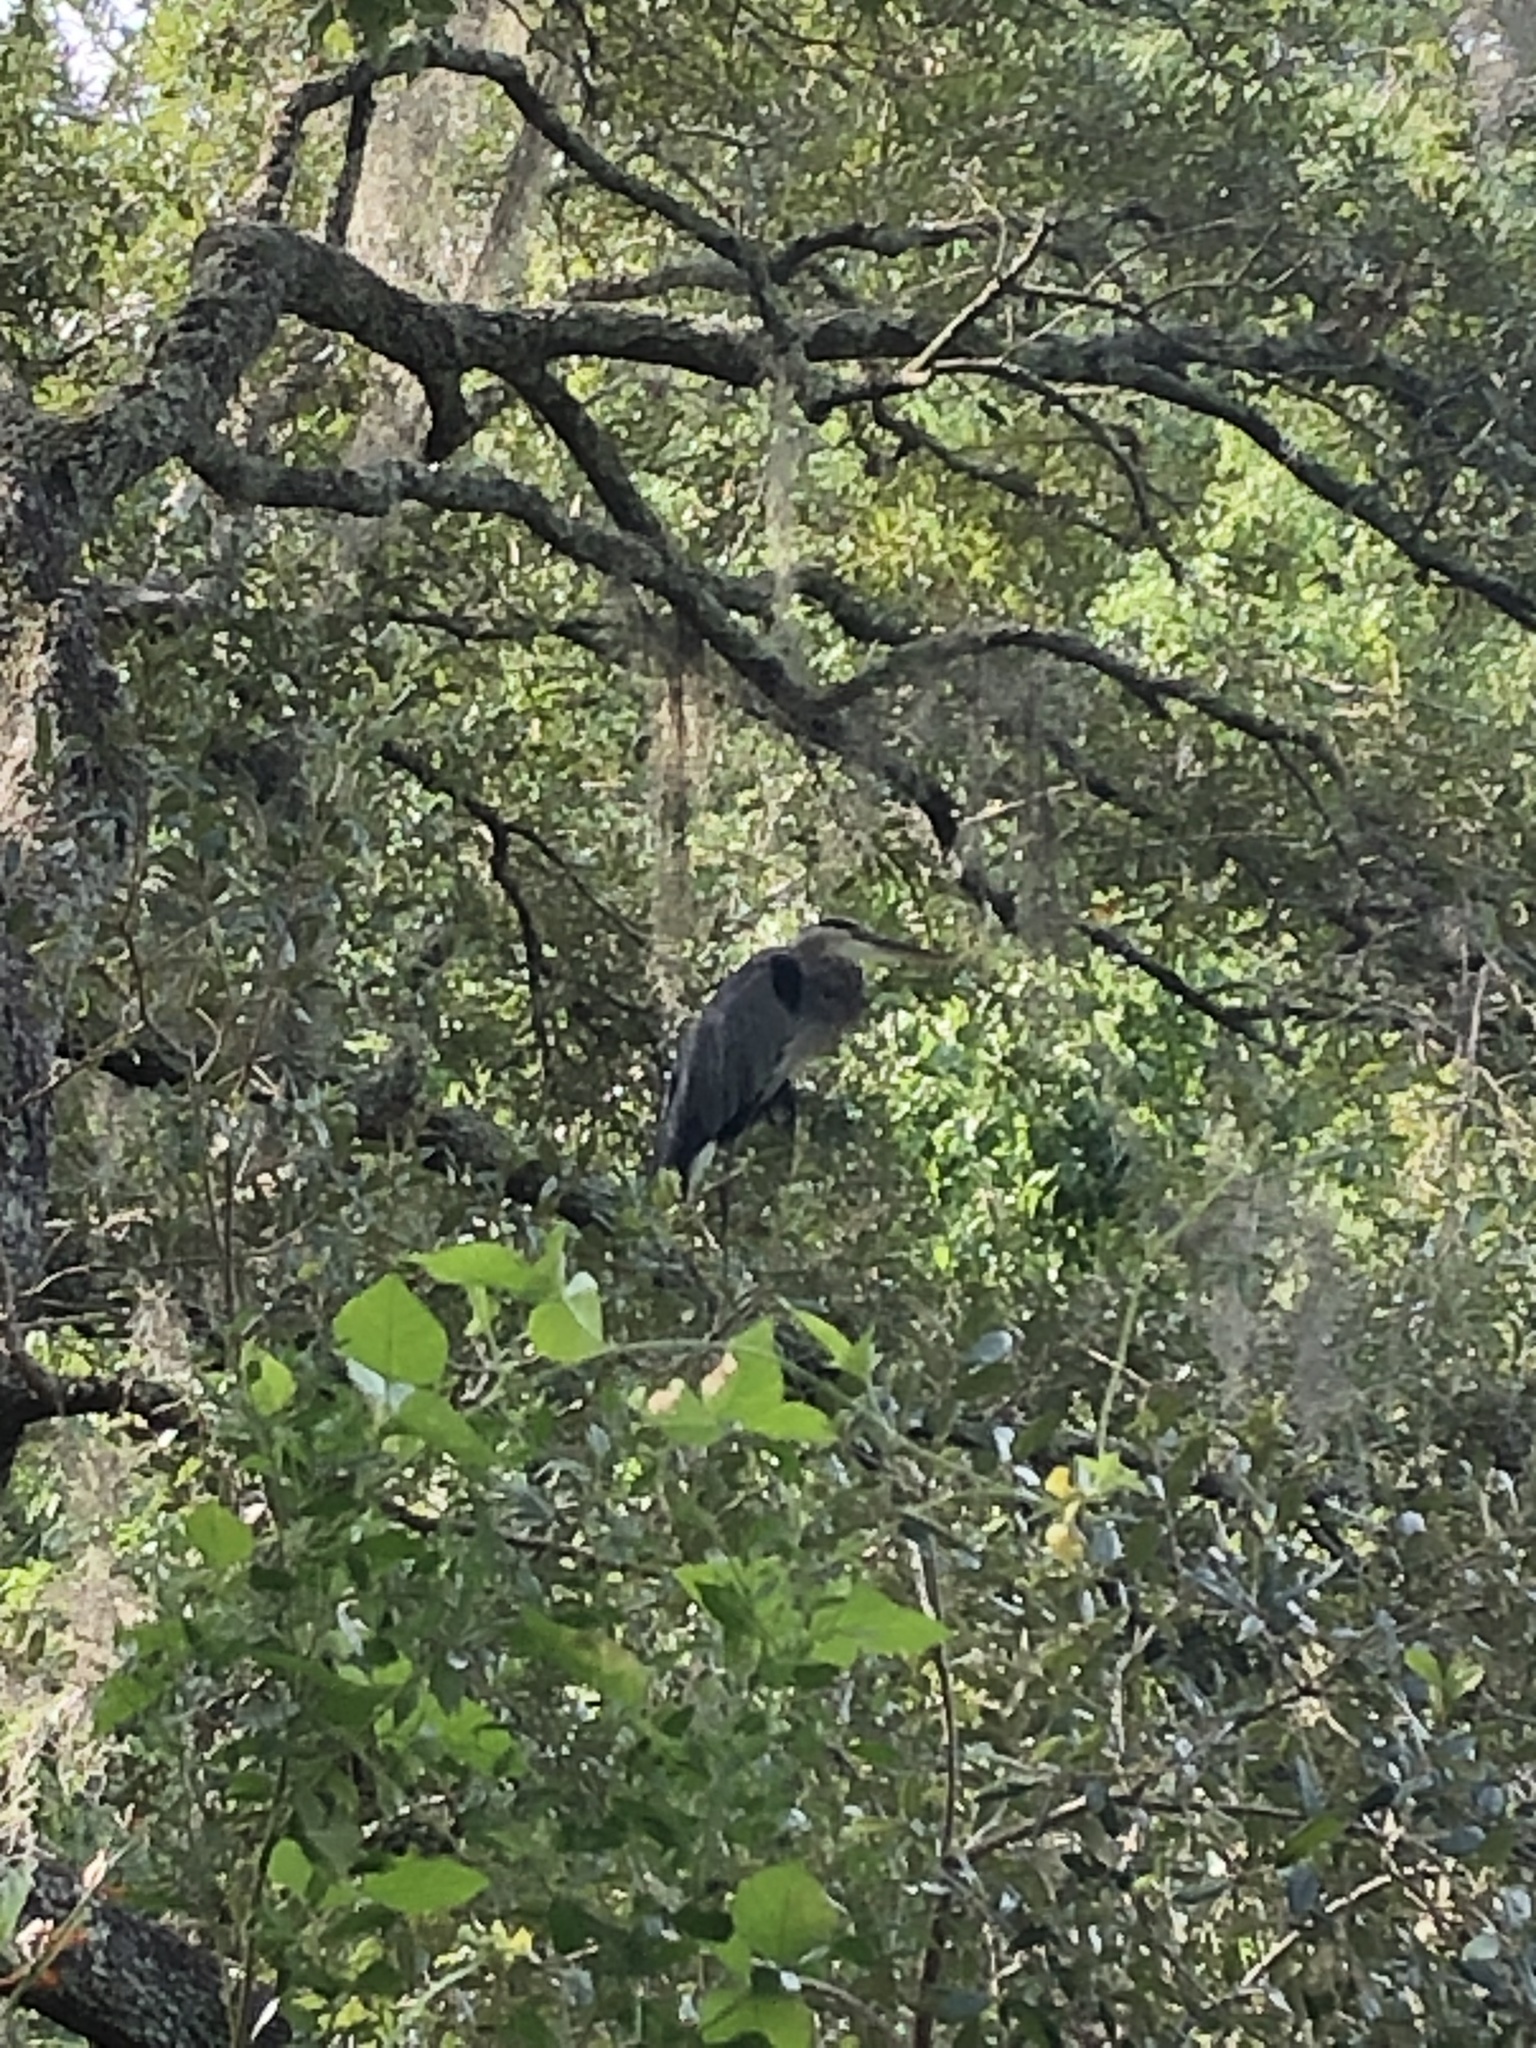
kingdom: Animalia
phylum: Chordata
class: Aves
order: Pelecaniformes
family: Ardeidae
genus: Ardea
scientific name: Ardea herodias
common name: Great blue heron
